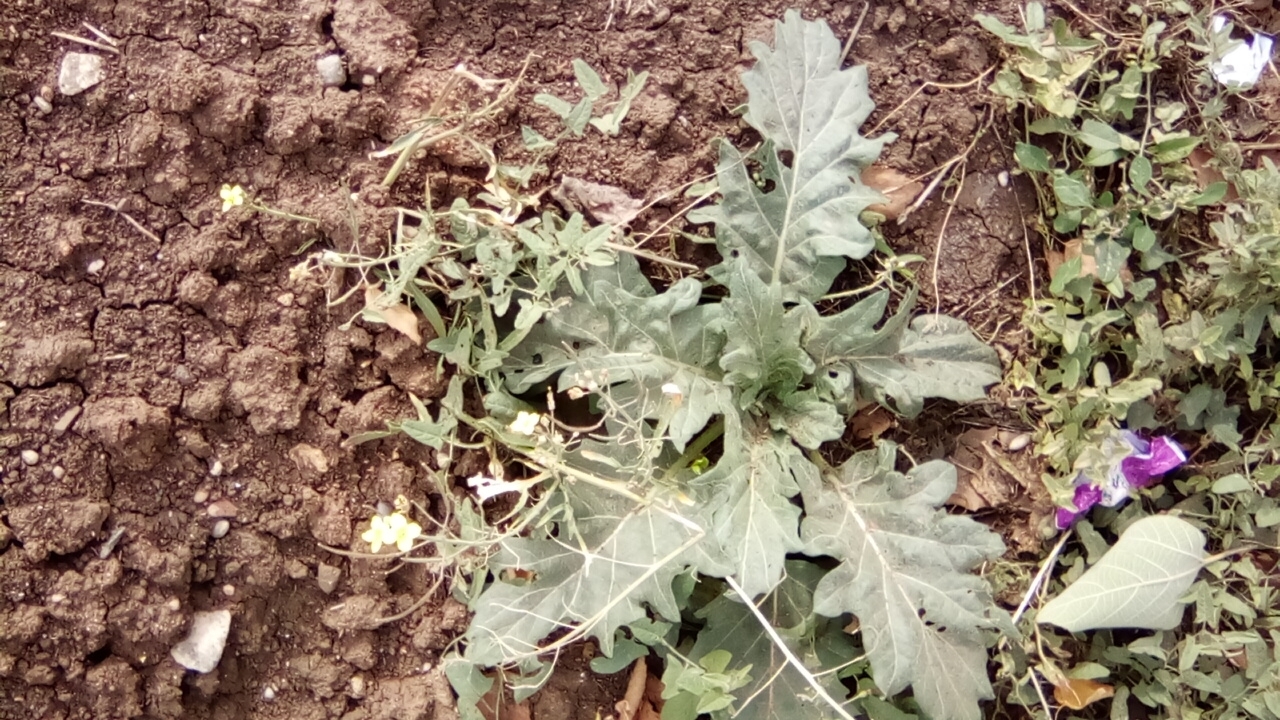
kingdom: Plantae
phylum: Tracheophyta
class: Magnoliopsida
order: Solanales
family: Solanaceae
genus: Hyoscyamus
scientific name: Hyoscyamus niger
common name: Henbane
